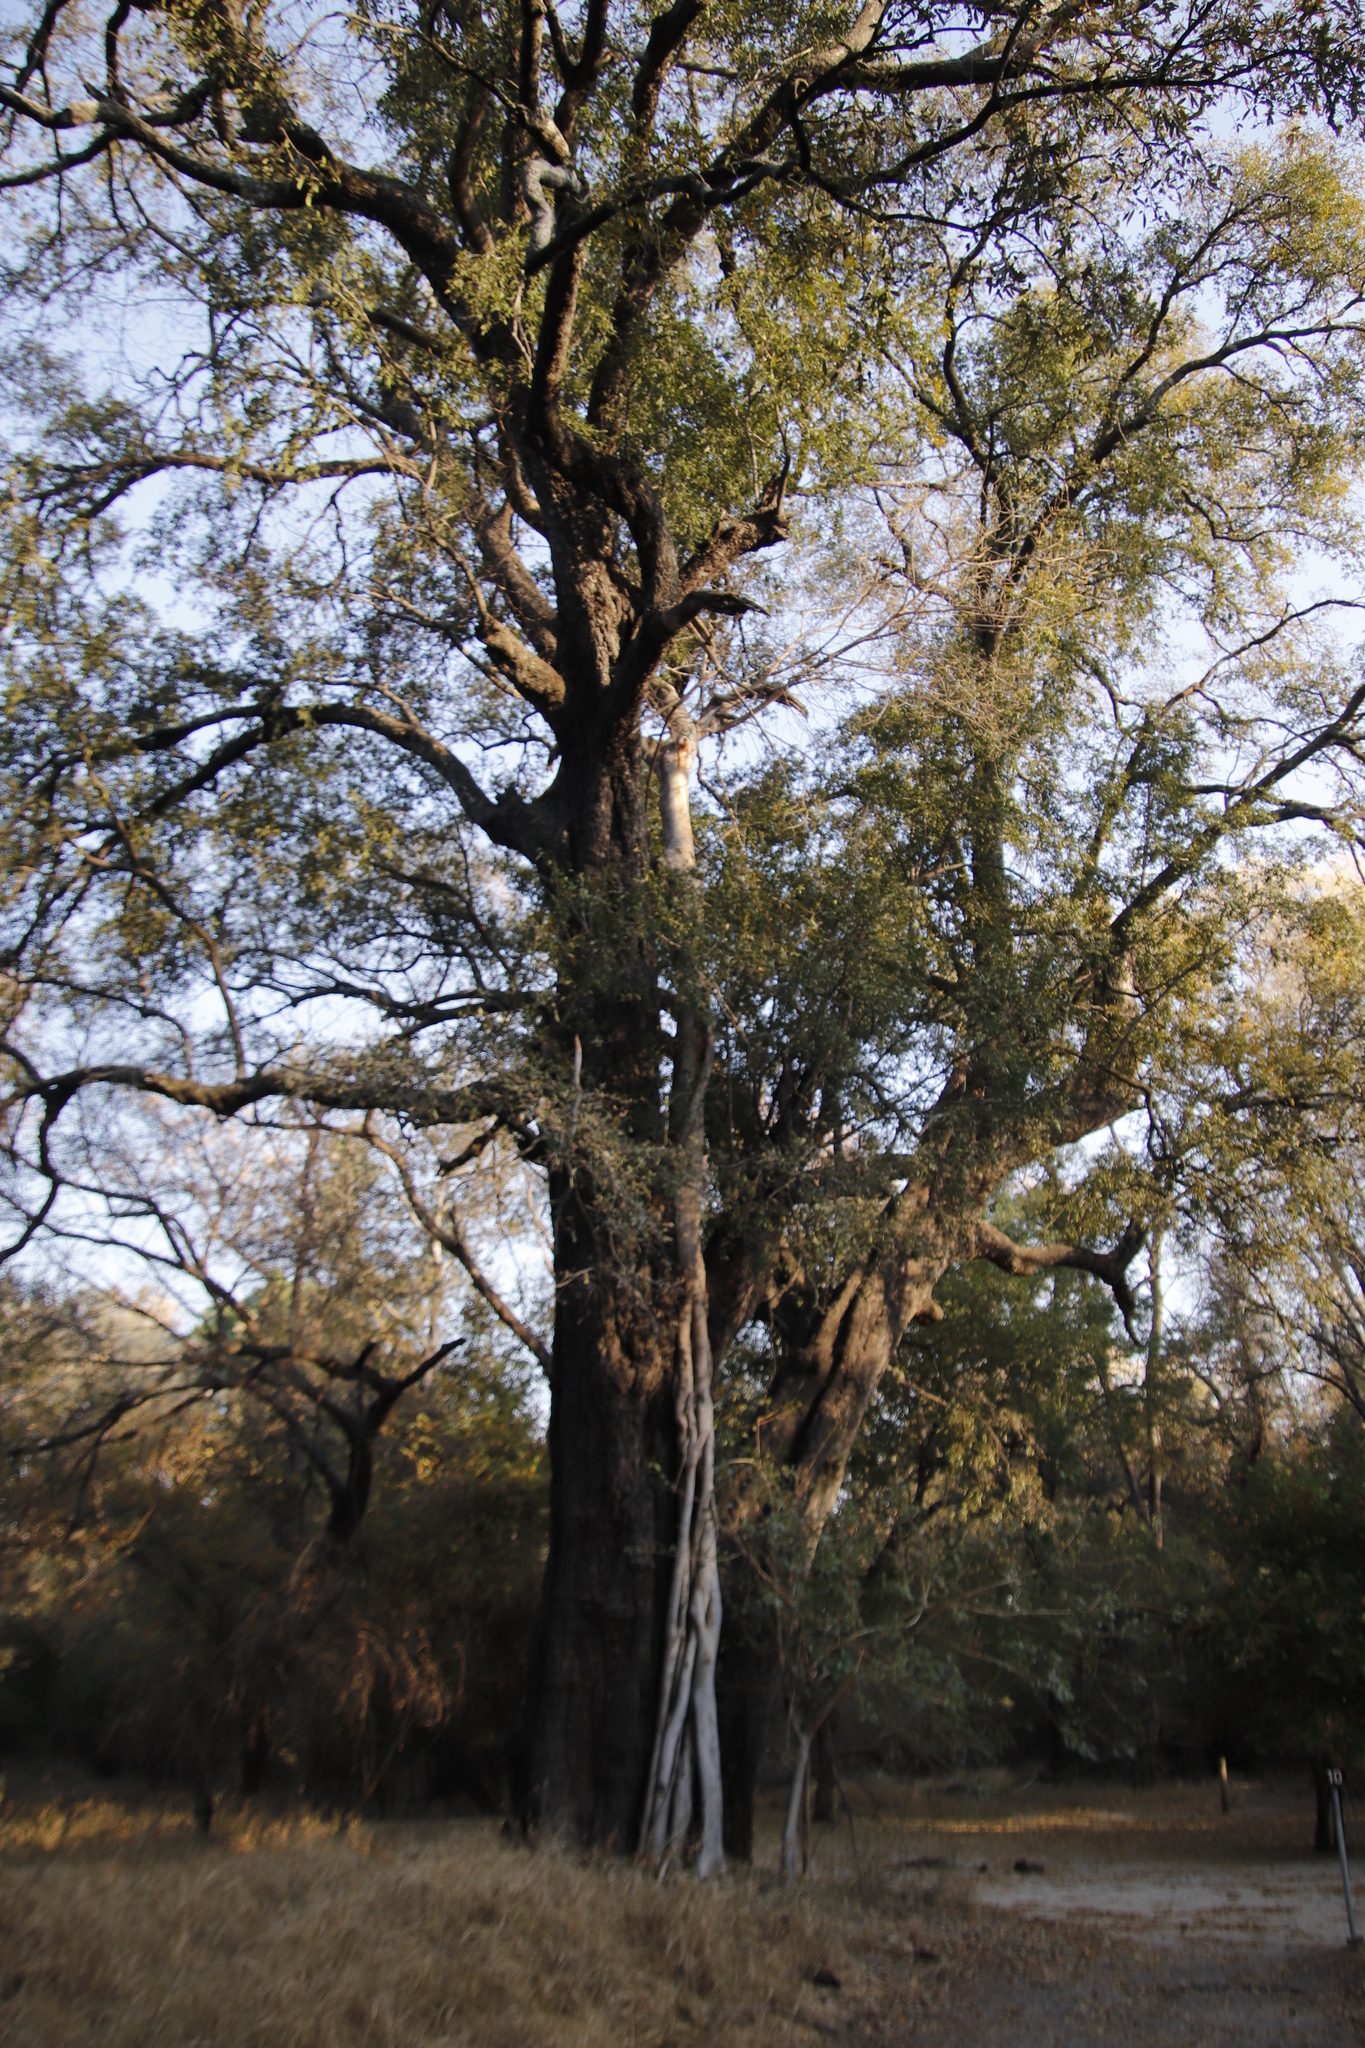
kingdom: Plantae
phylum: Tracheophyta
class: Magnoliopsida
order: Rosales
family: Moraceae
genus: Ficus
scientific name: Ficus thonningii
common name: Fig
